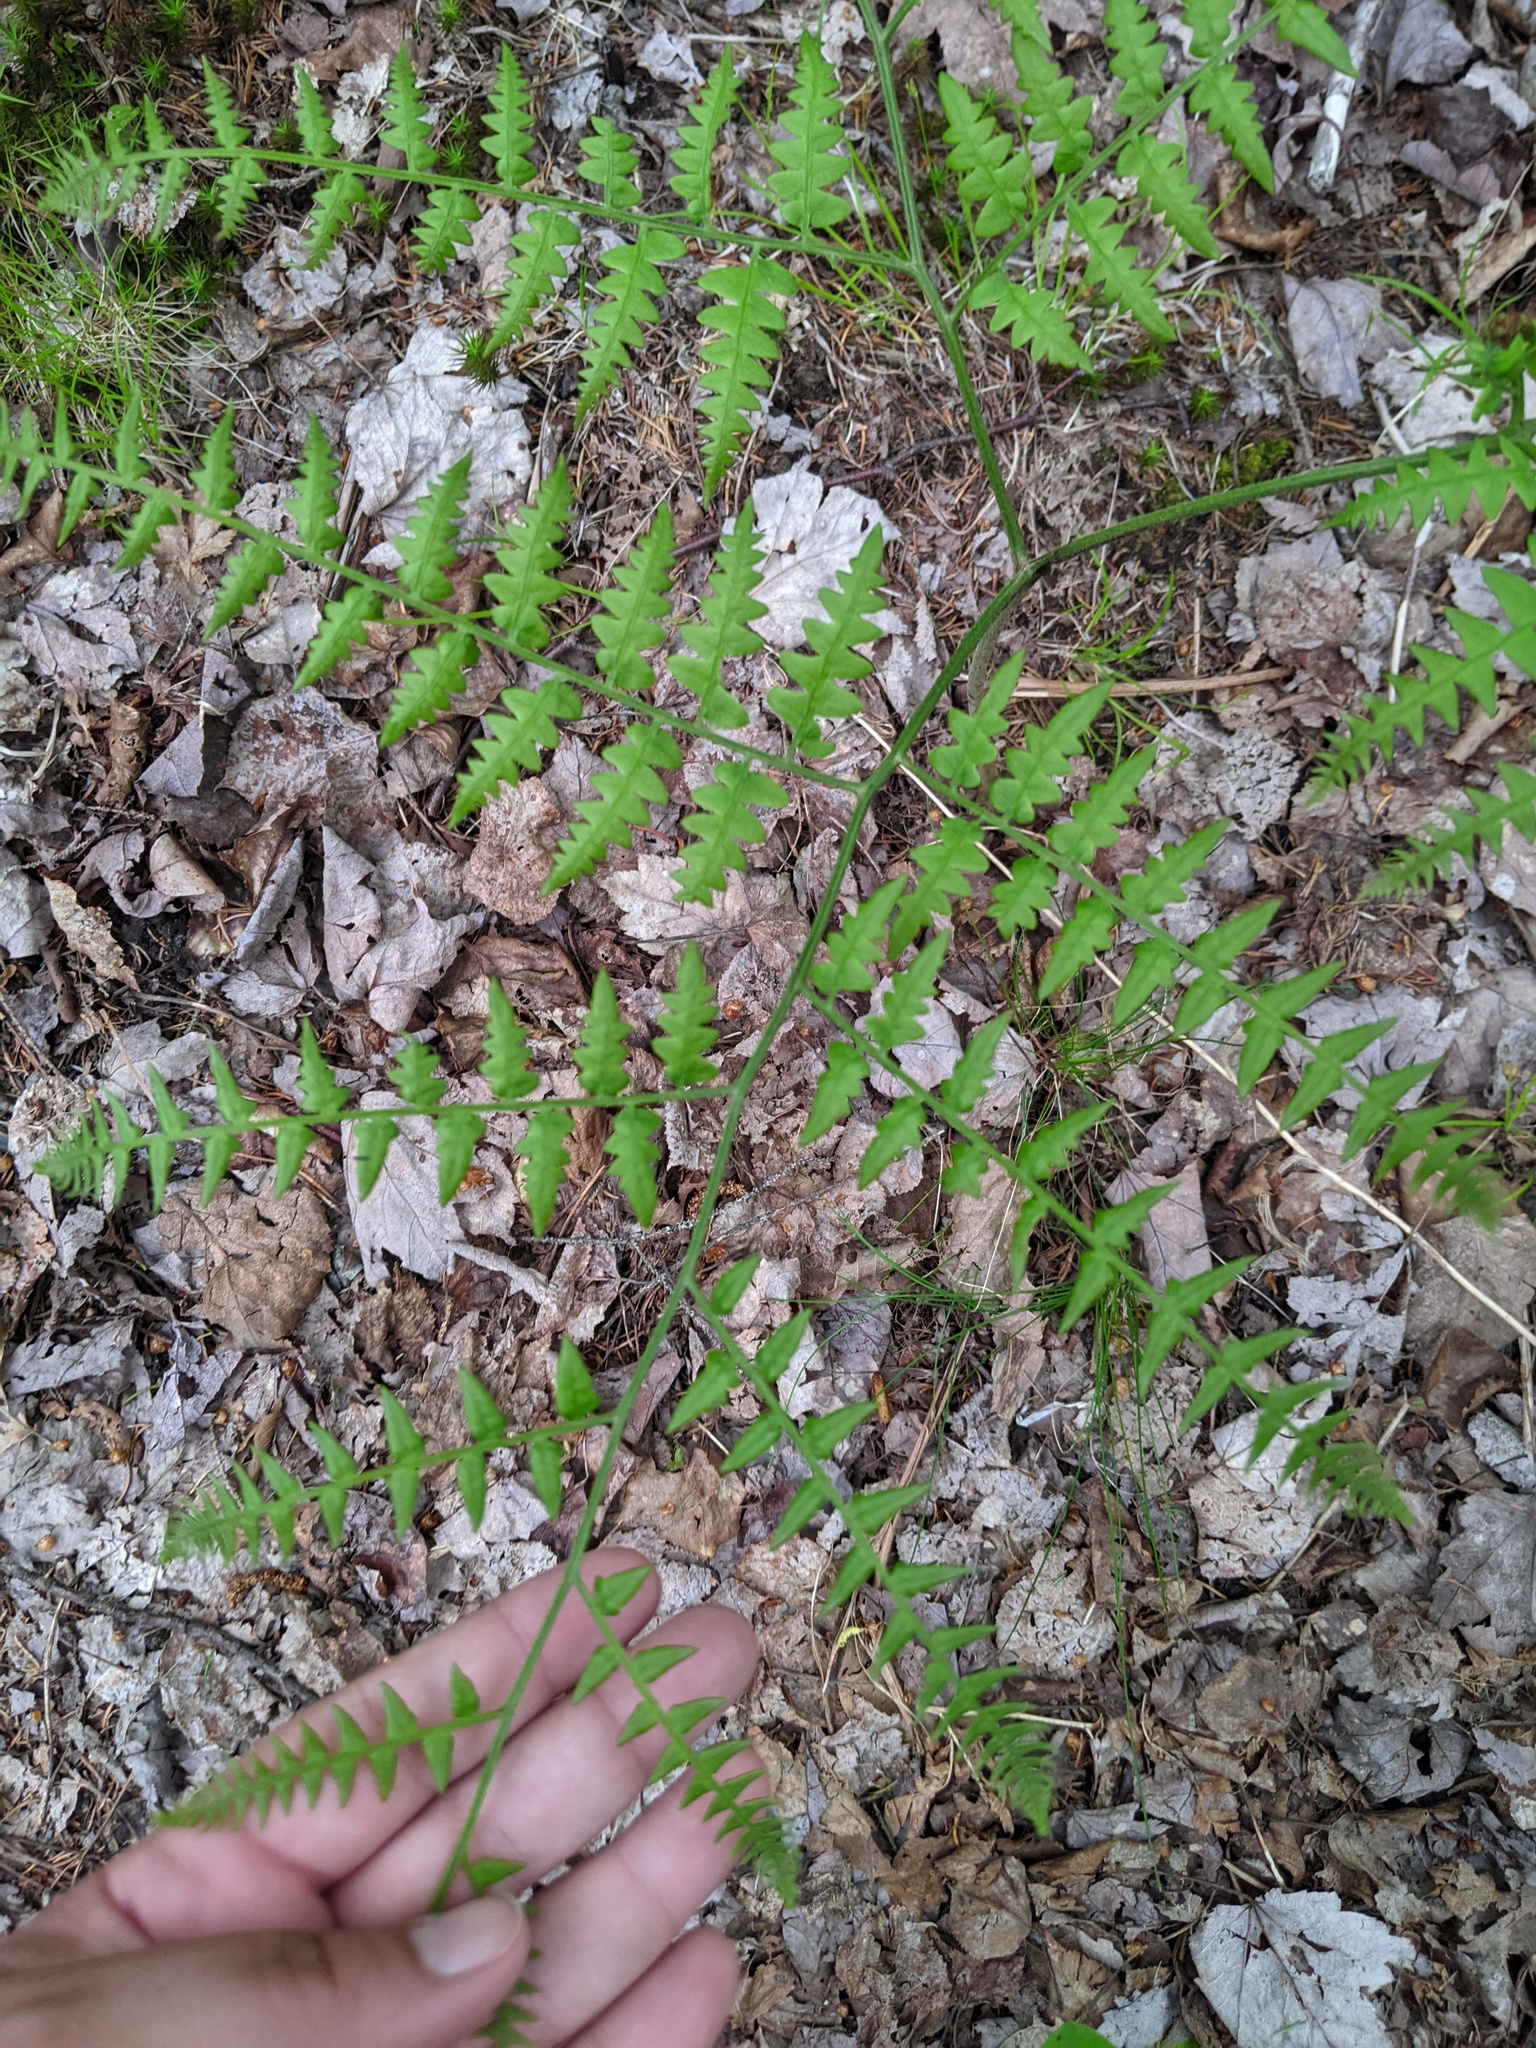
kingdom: Plantae
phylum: Tracheophyta
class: Polypodiopsida
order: Polypodiales
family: Dennstaedtiaceae
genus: Pteridium
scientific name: Pteridium aquilinum
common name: Bracken
